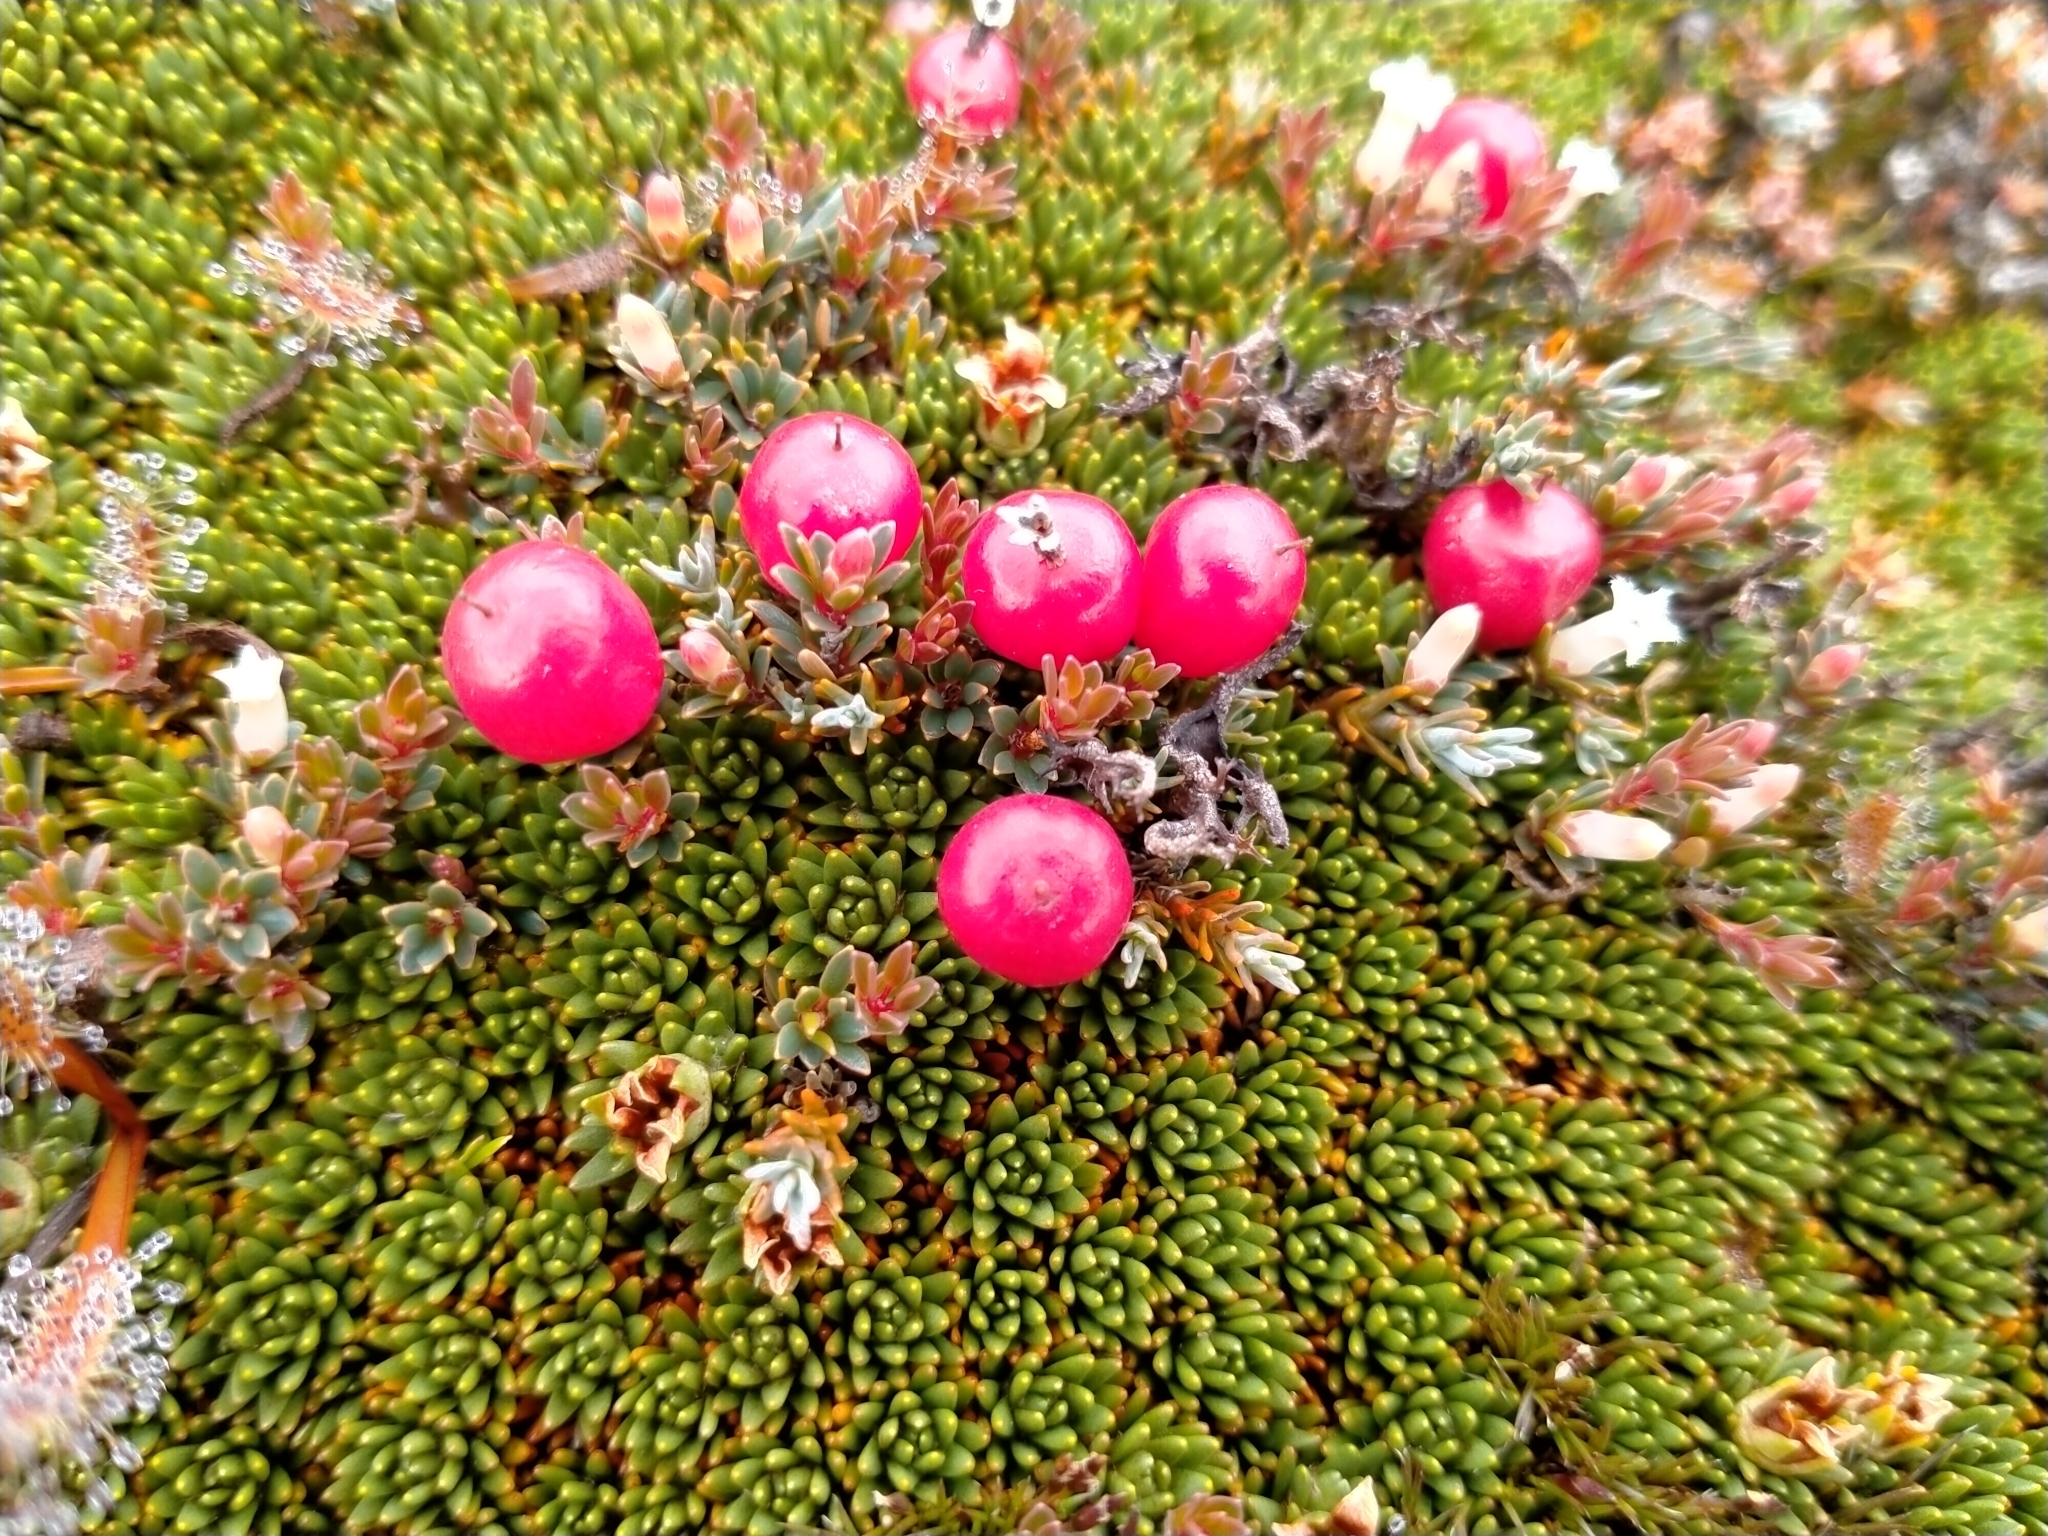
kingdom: Plantae
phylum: Tracheophyta
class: Magnoliopsida
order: Ericales
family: Ericaceae
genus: Pentachondra
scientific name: Pentachondra pumila
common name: Carpet-heath
